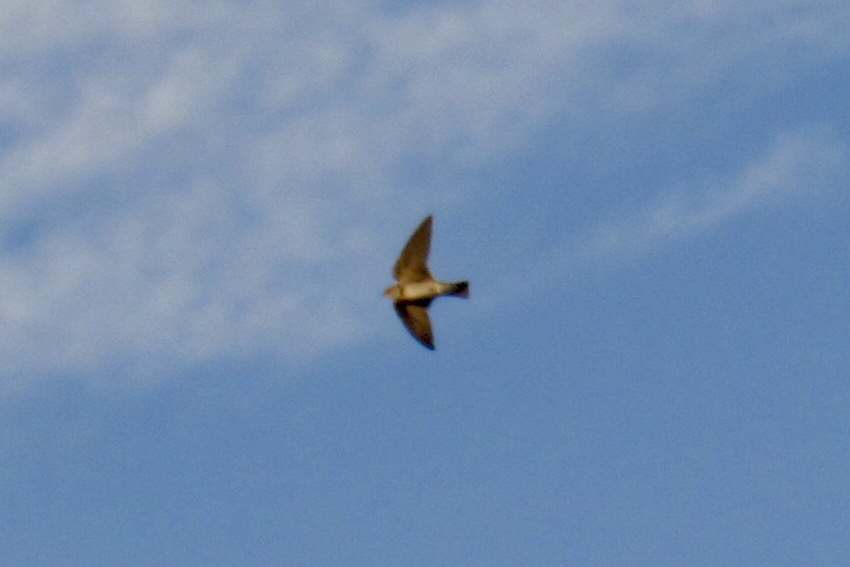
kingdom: Animalia
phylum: Chordata
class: Aves
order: Passeriformes
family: Hirundinidae
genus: Stelgidopteryx
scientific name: Stelgidopteryx serripennis
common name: Northern rough-winged swallow
